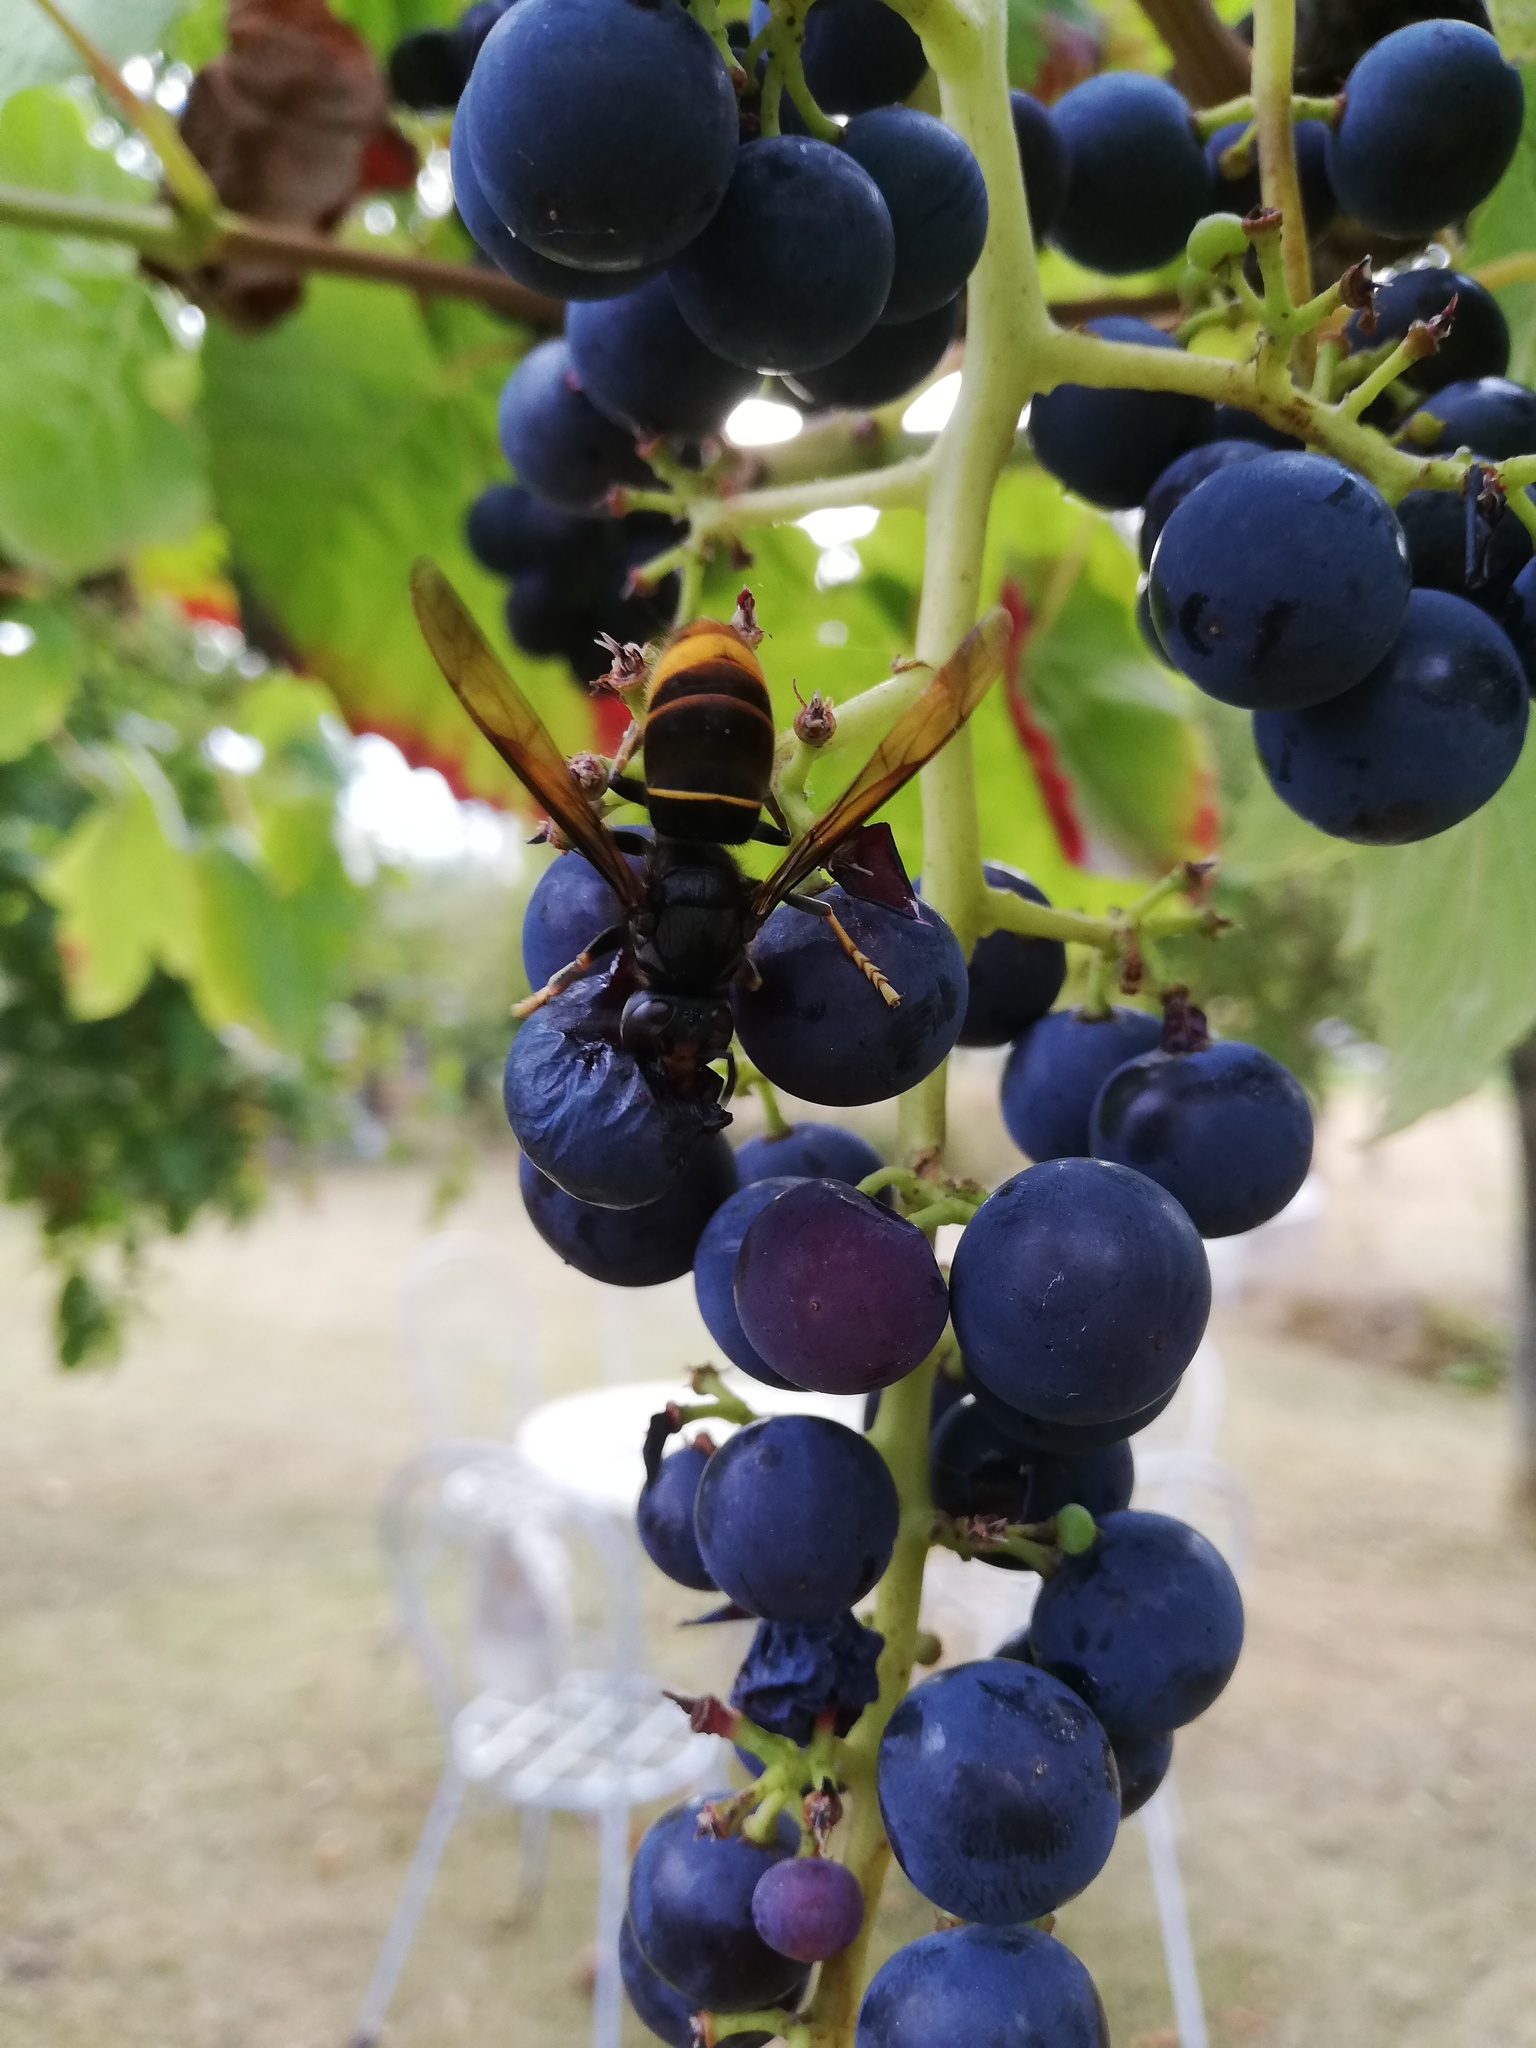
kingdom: Animalia
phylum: Arthropoda
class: Insecta
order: Hymenoptera
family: Vespidae
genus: Vespa
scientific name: Vespa velutina
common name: Asian hornet
